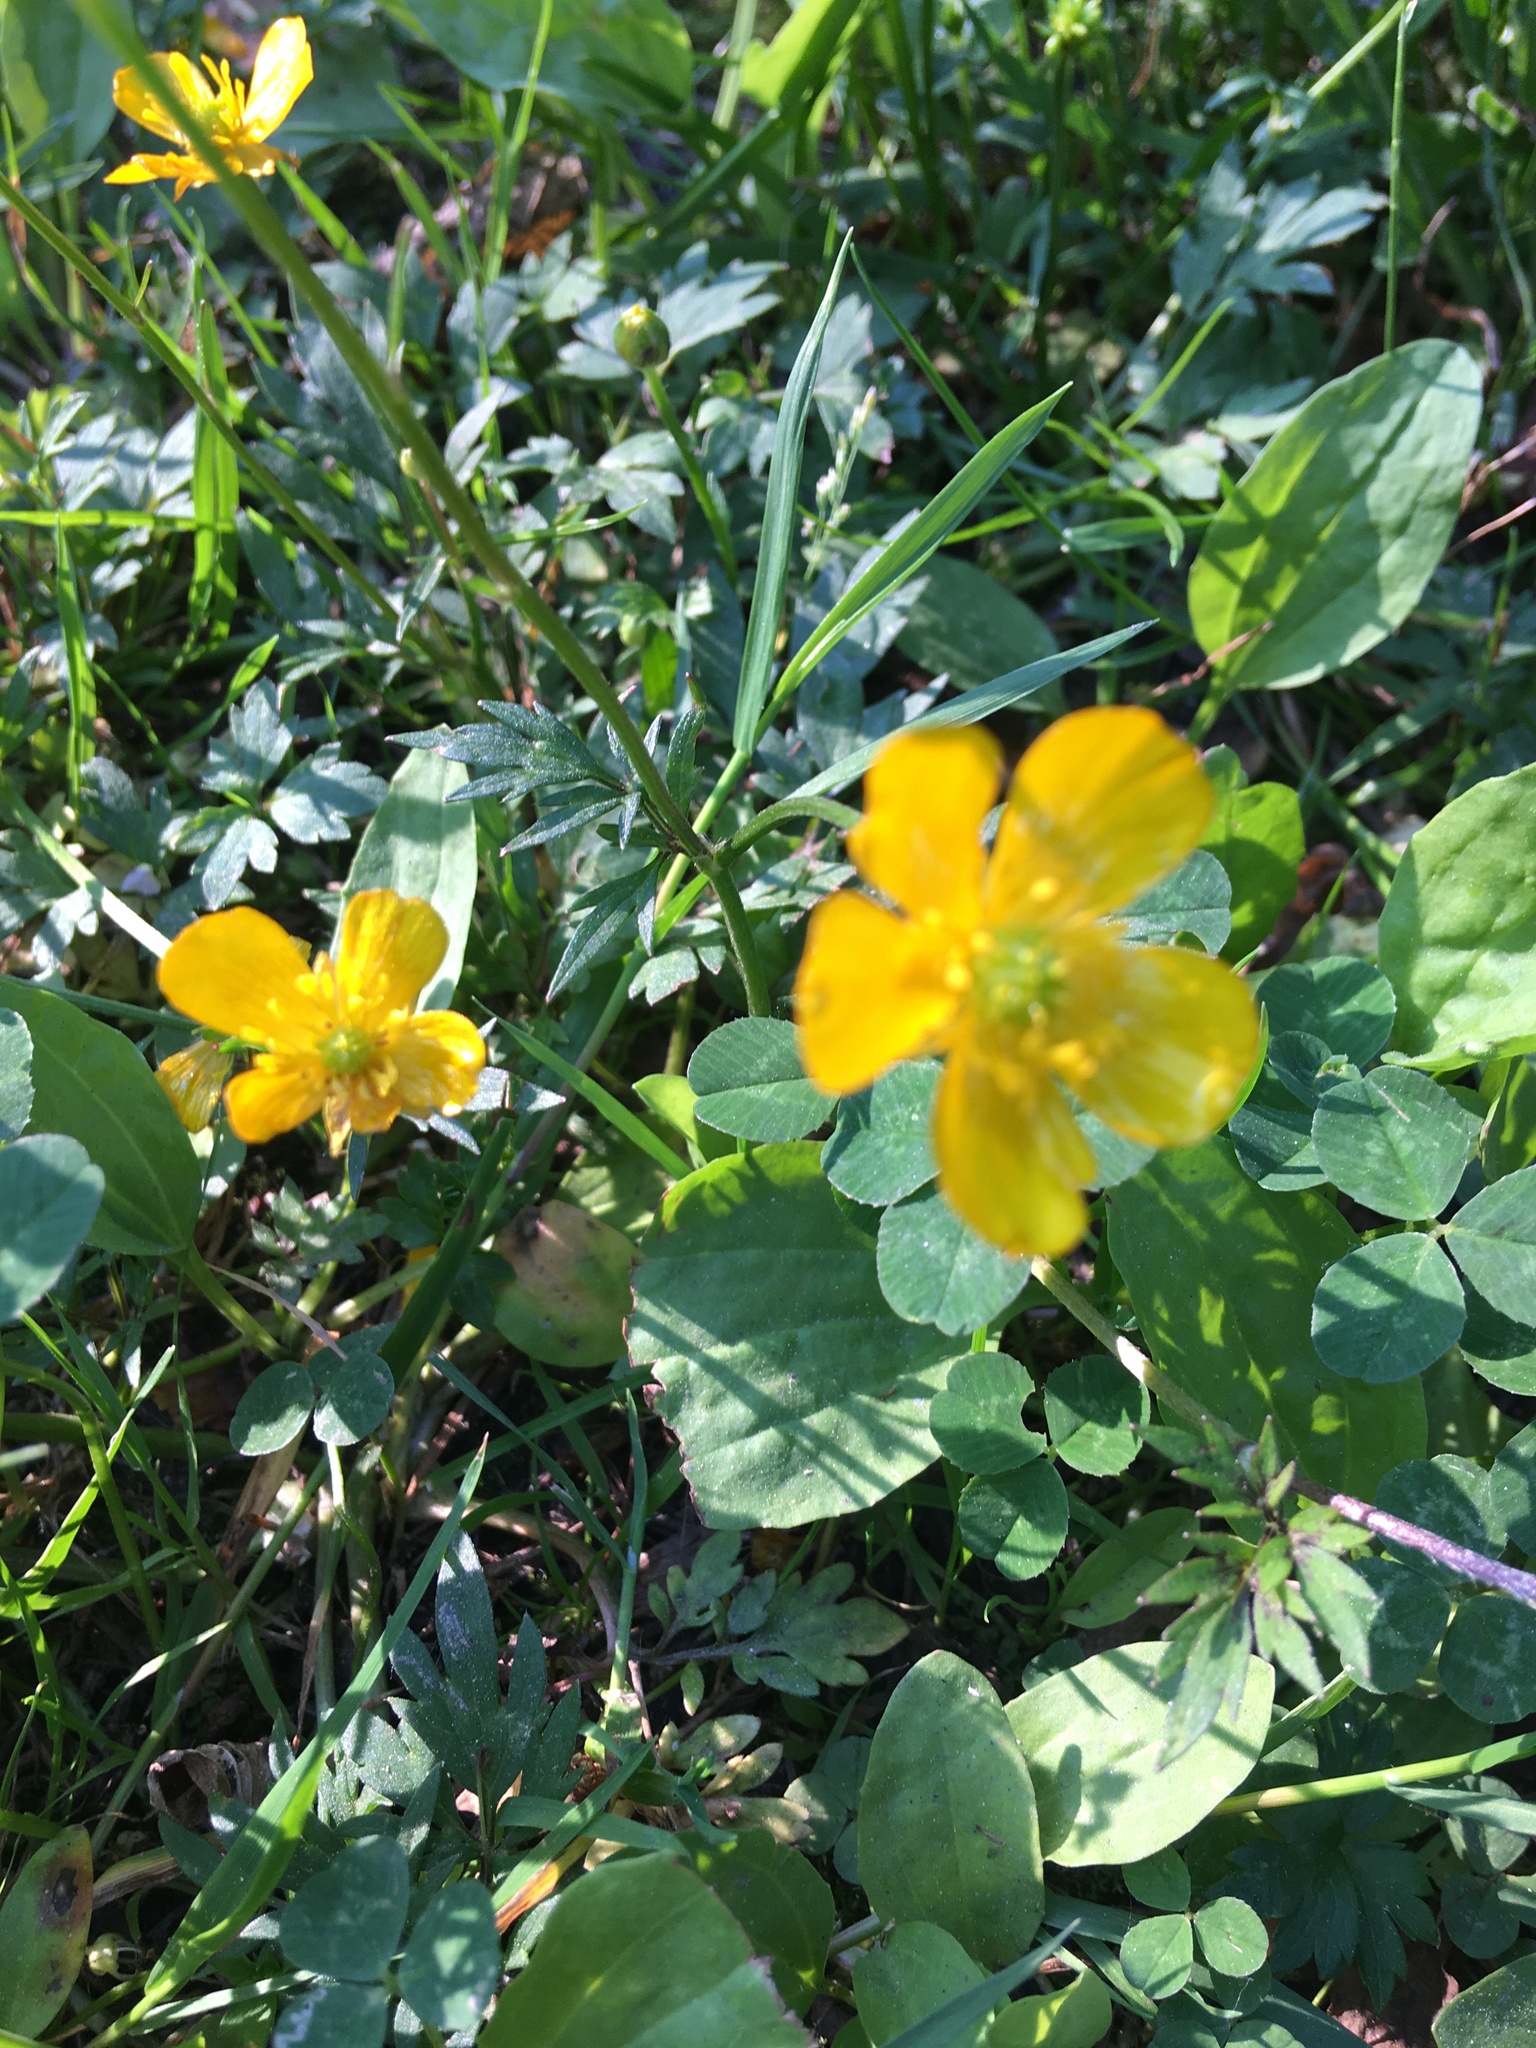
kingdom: Plantae
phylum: Tracheophyta
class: Magnoliopsida
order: Ranunculales
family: Ranunculaceae
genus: Ranunculus
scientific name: Ranunculus repens
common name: Creeping buttercup
